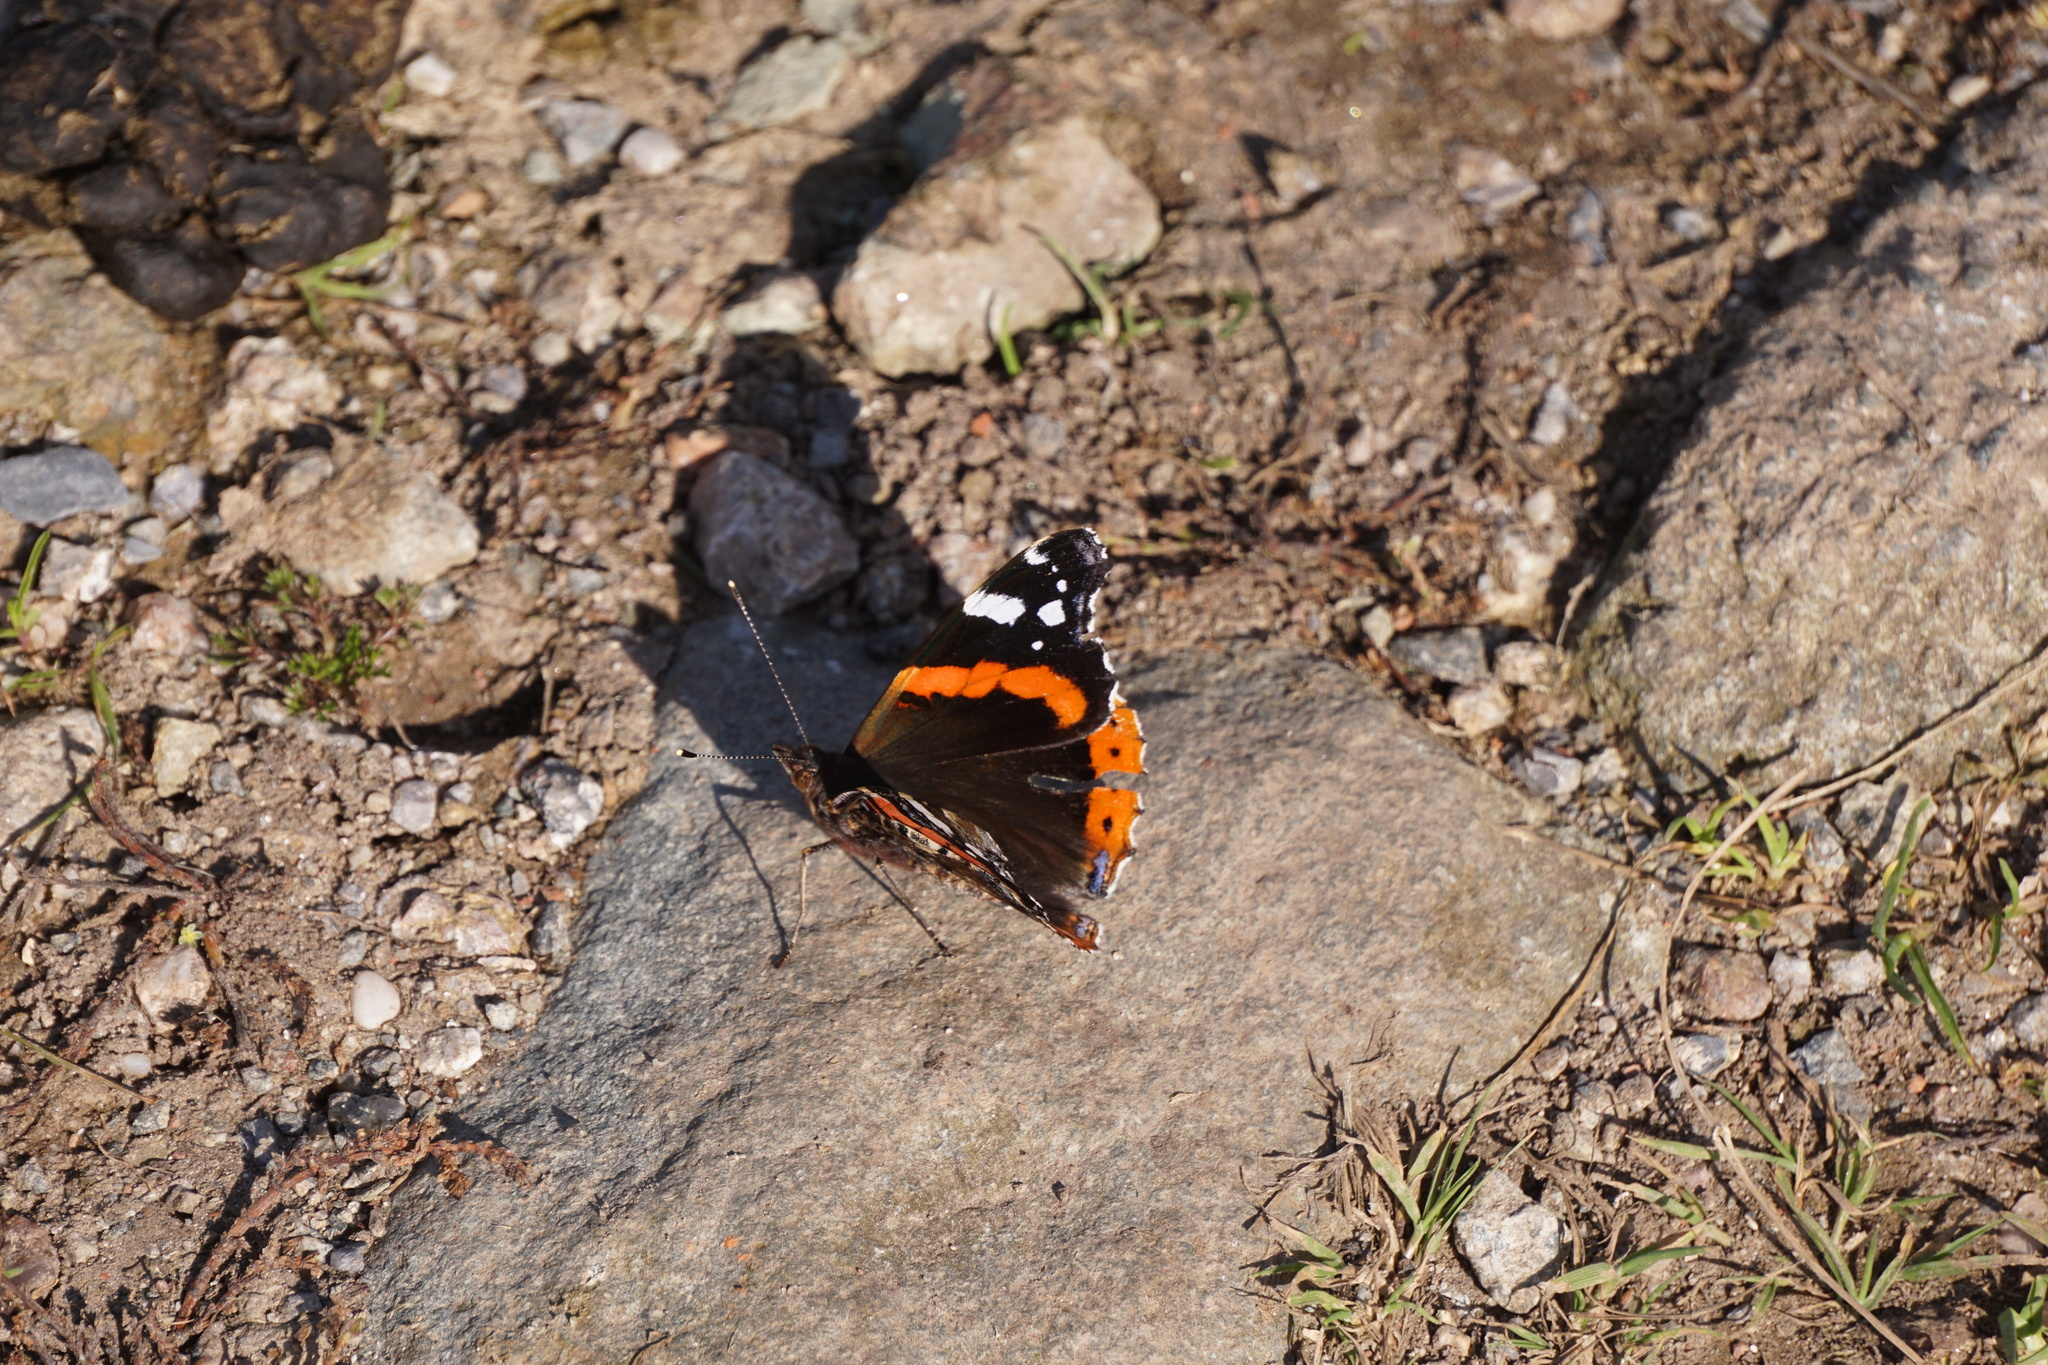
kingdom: Animalia
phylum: Arthropoda
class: Insecta
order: Lepidoptera
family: Nymphalidae
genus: Vanessa
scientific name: Vanessa atalanta
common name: Red admiral
